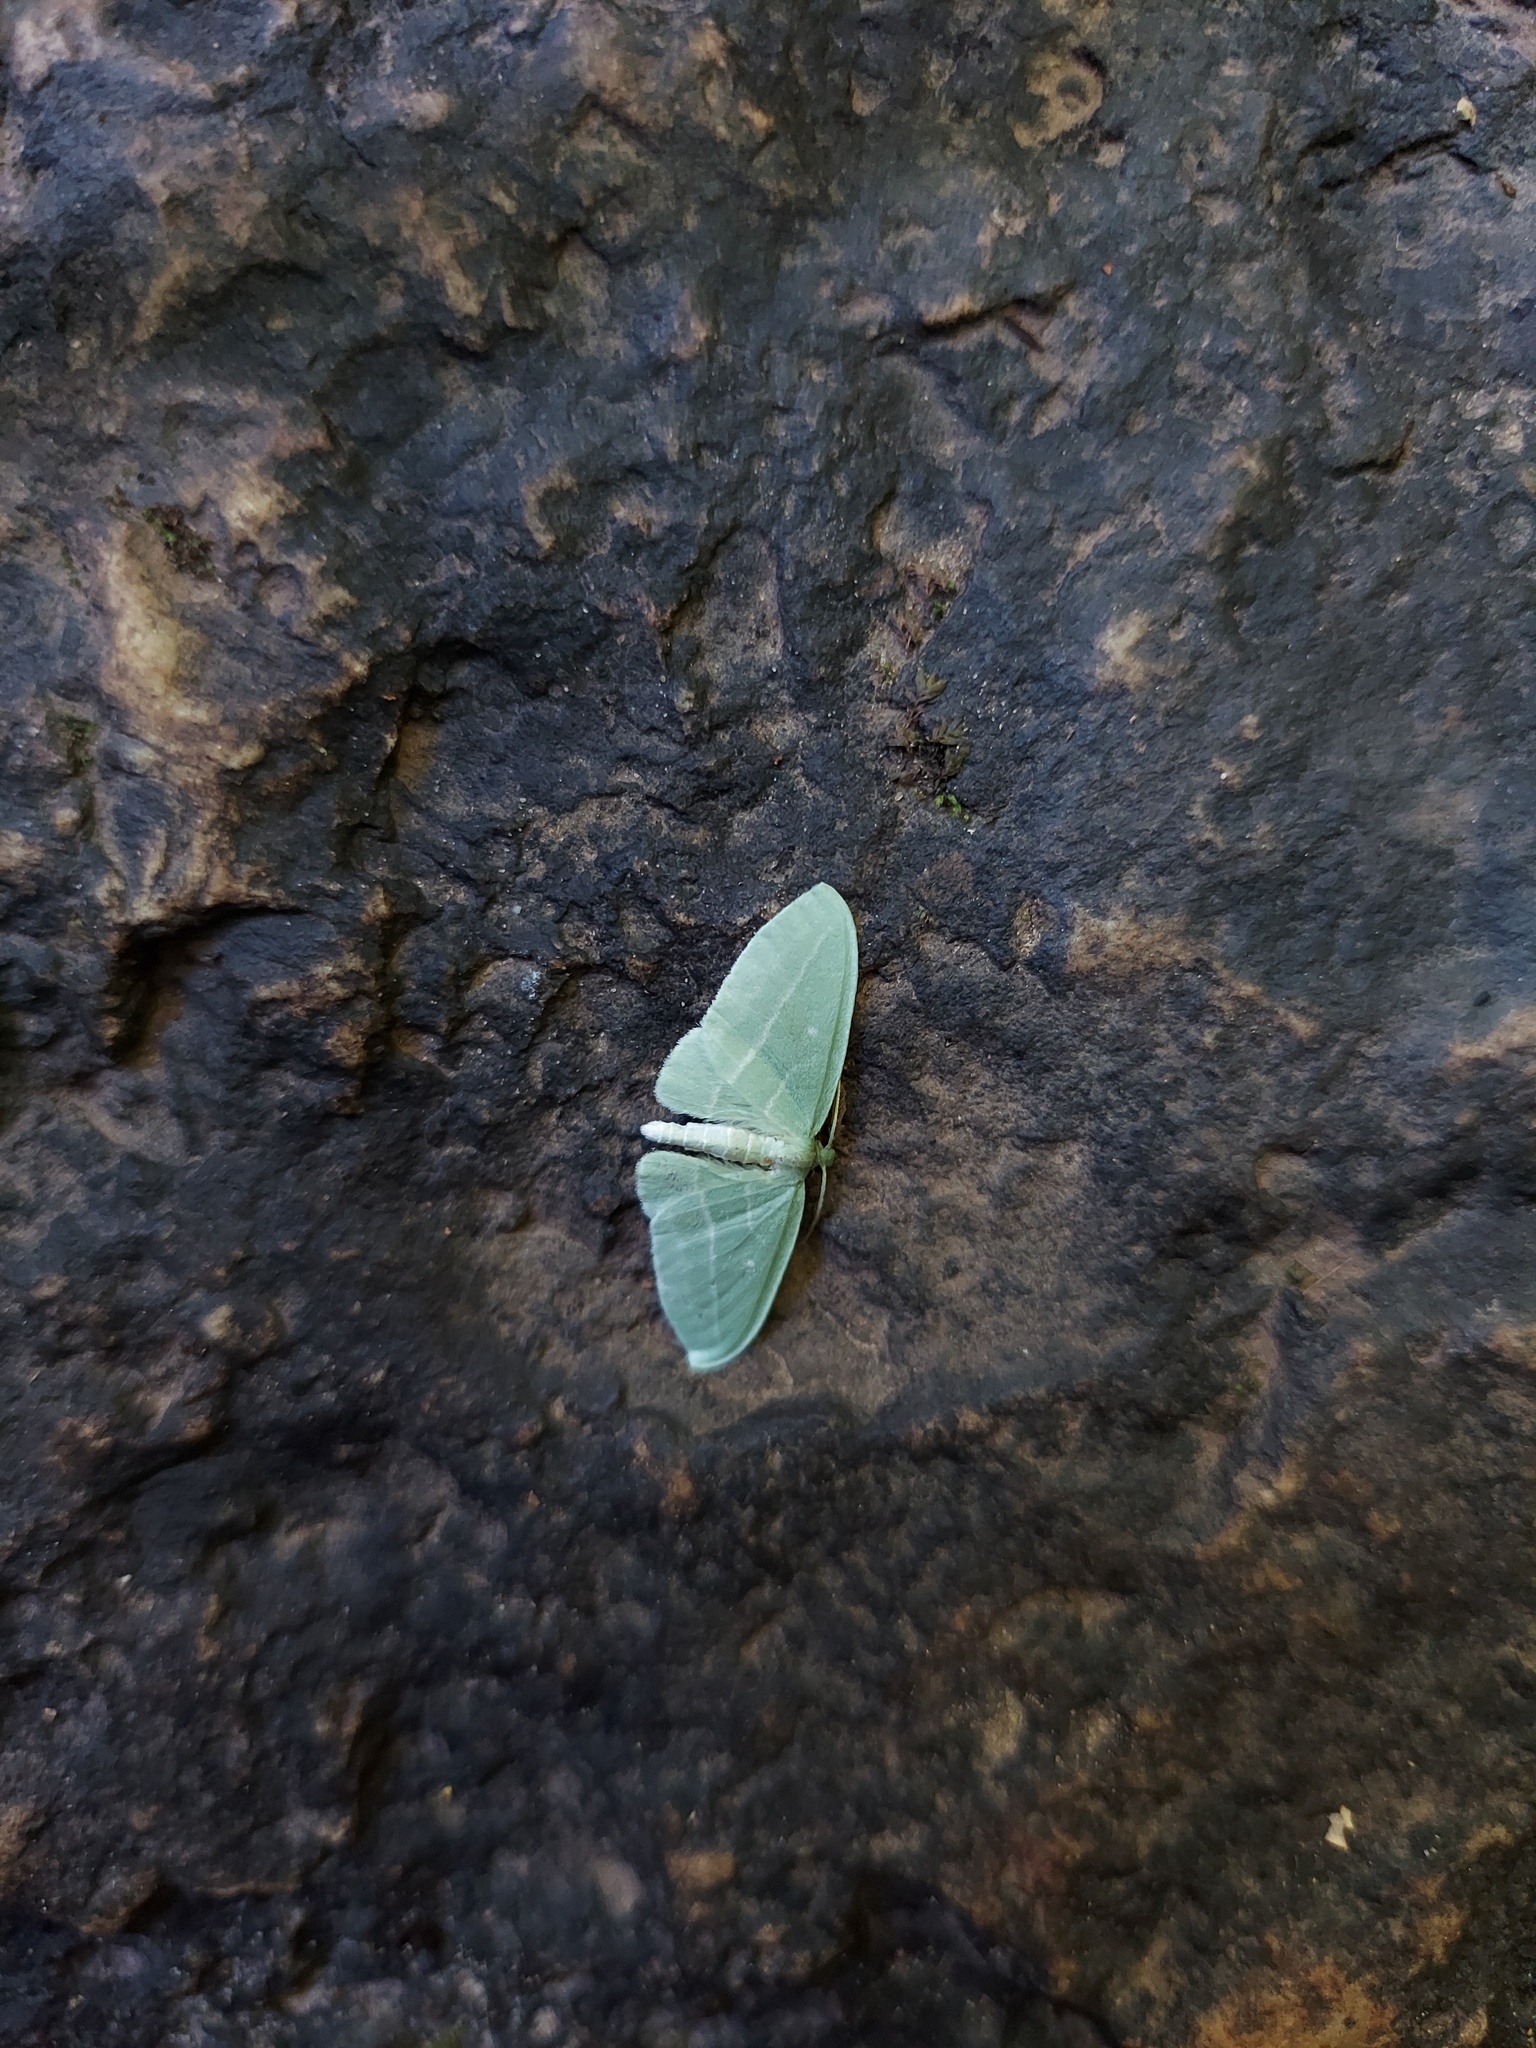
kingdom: Animalia
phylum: Arthropoda
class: Insecta
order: Lepidoptera
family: Geometridae
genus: Dyspteris
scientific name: Dyspteris abortivaria
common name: Bad-wing
